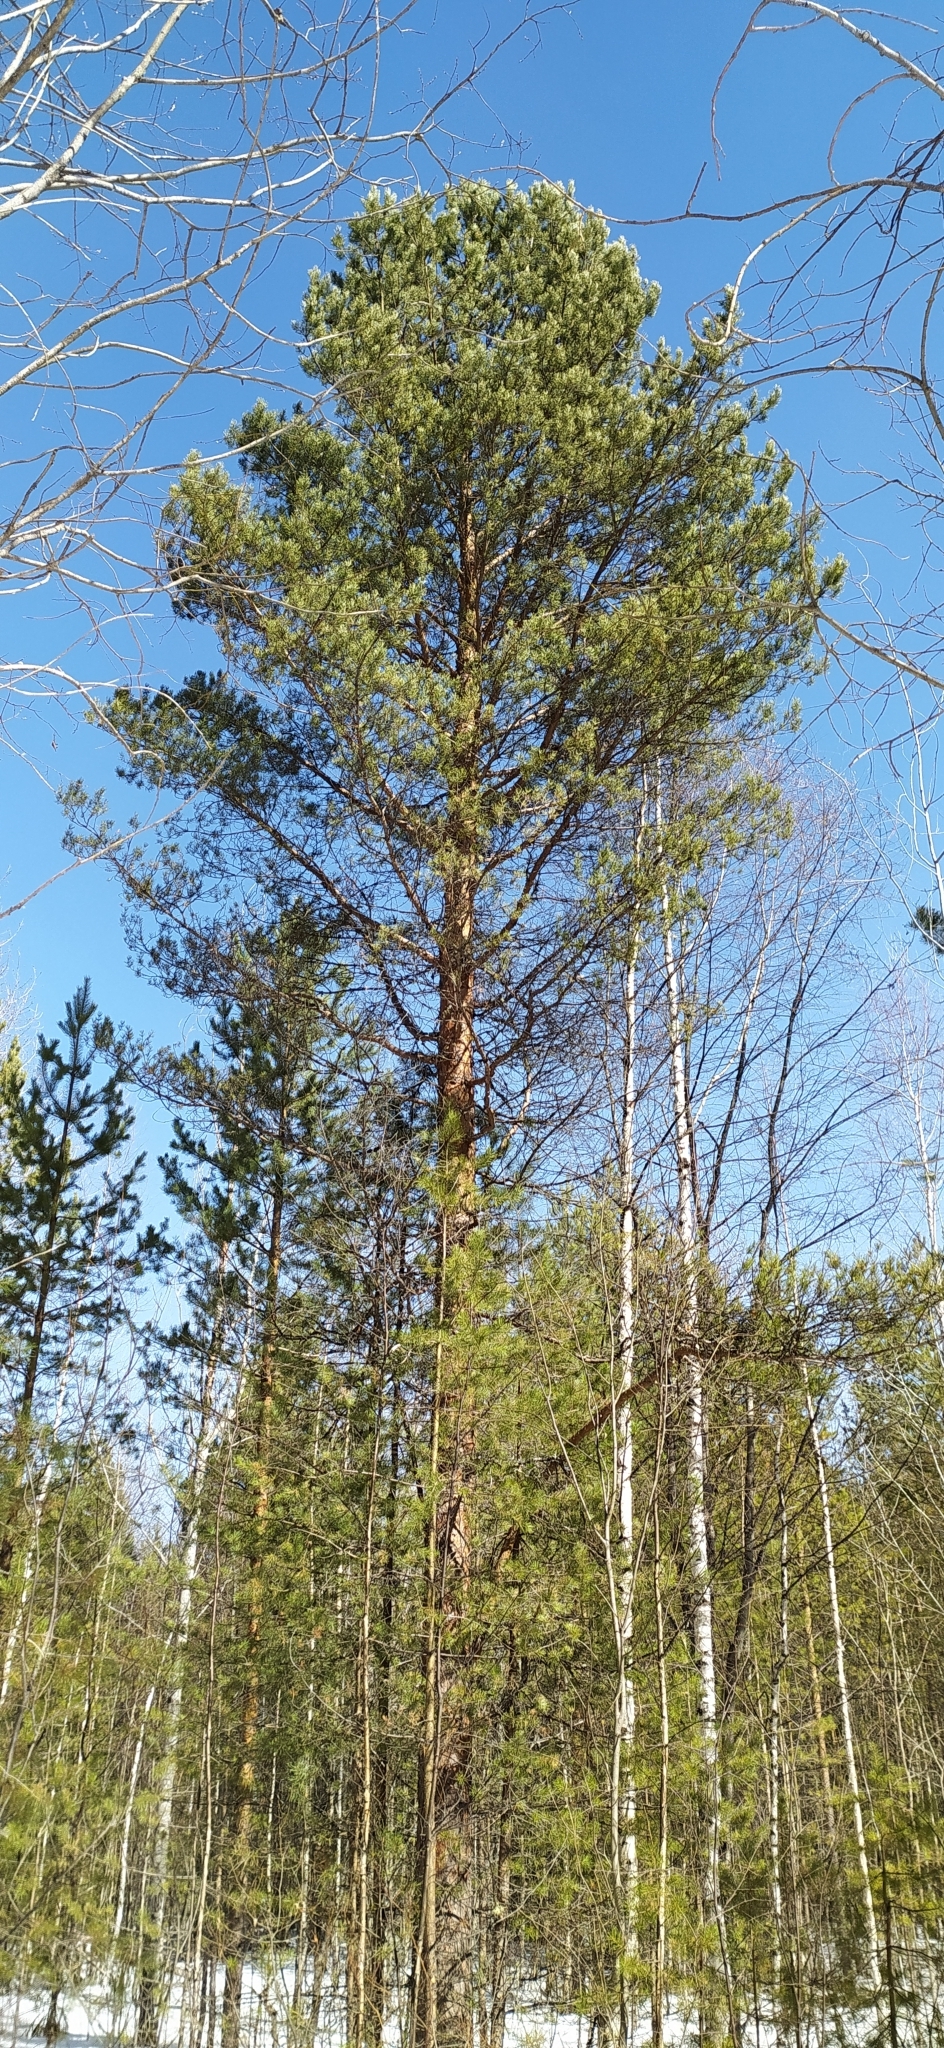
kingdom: Plantae
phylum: Tracheophyta
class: Pinopsida
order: Pinales
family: Pinaceae
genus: Pinus
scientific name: Pinus sylvestris
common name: Scots pine
